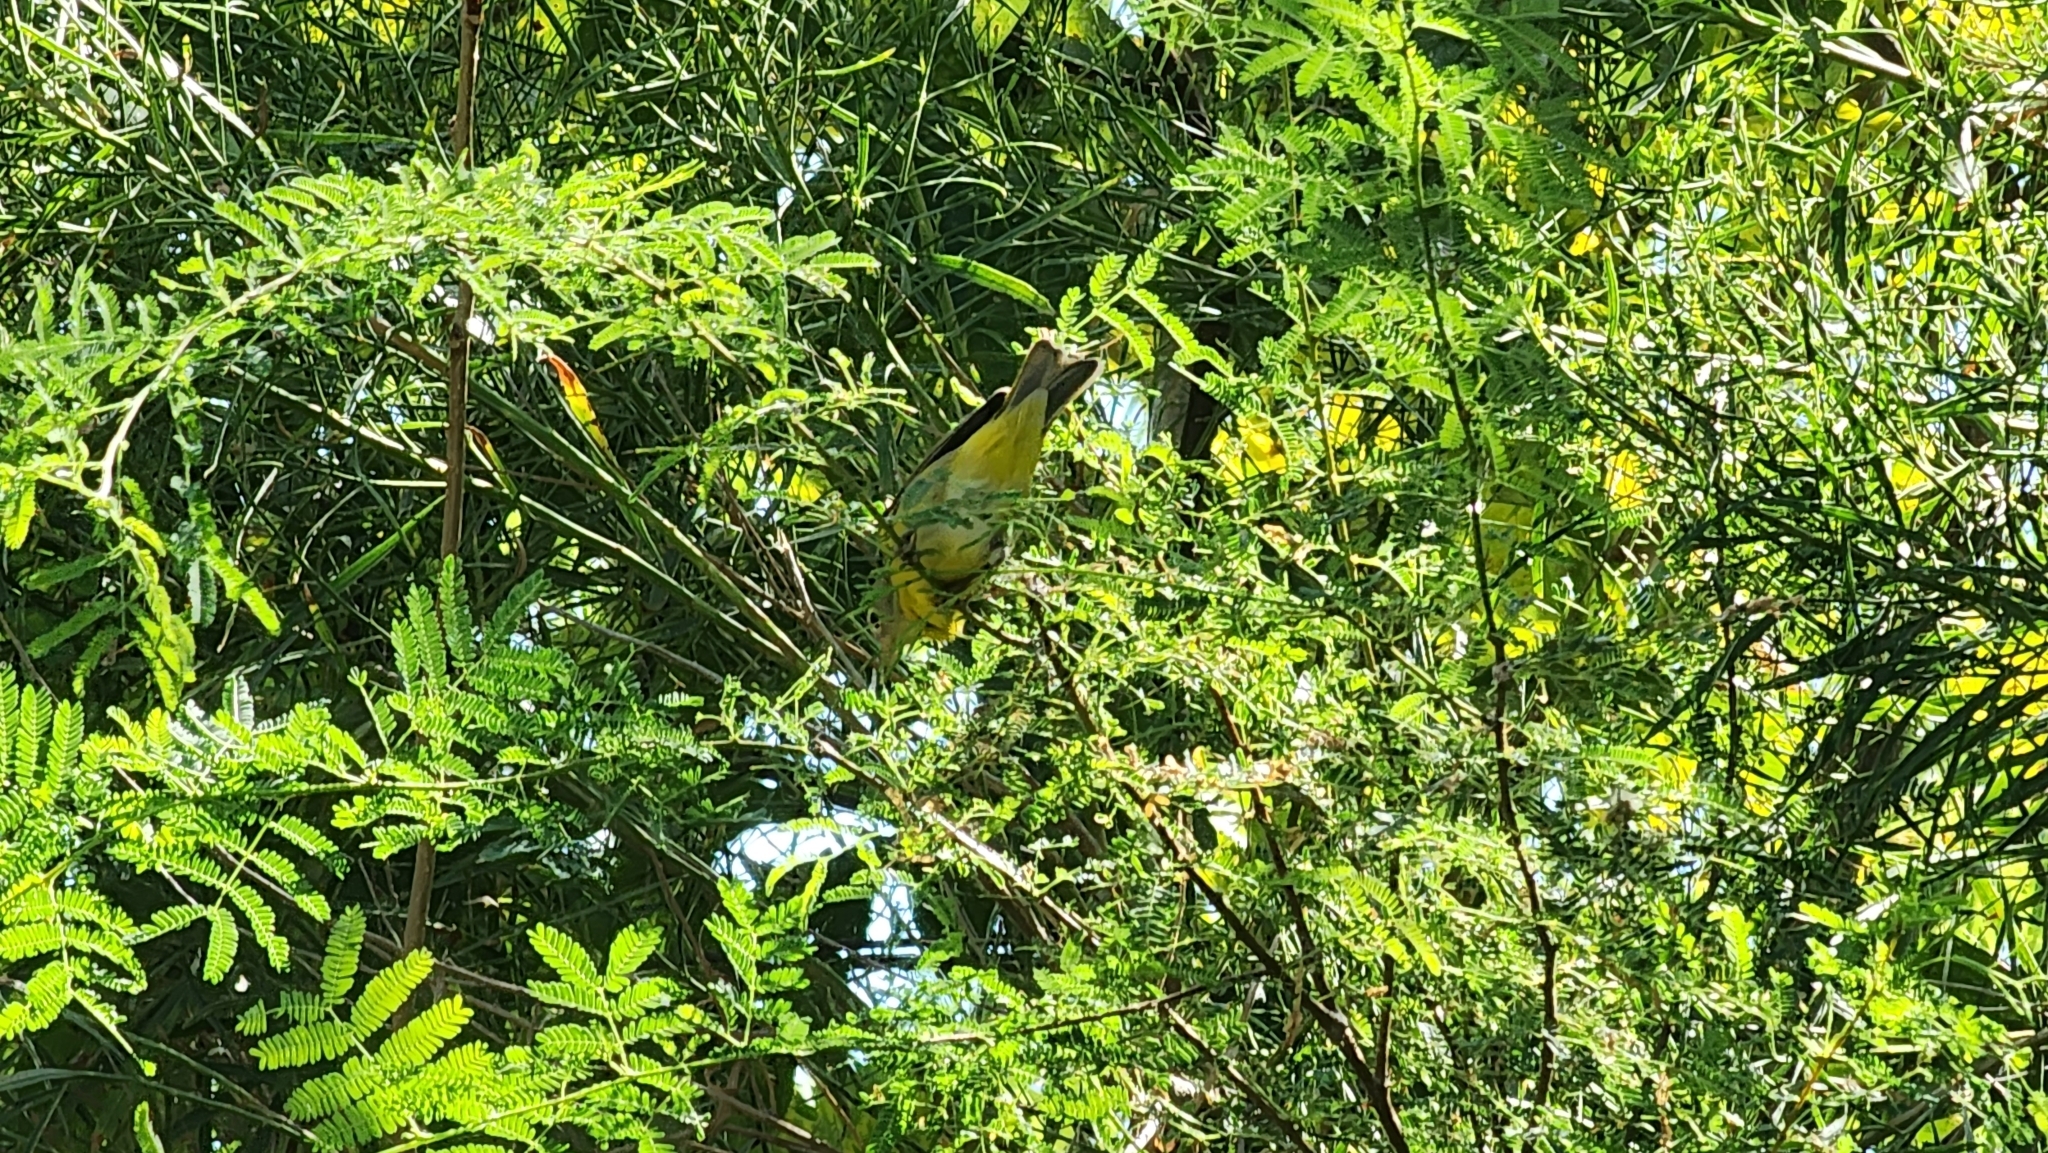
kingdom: Animalia
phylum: Chordata
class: Aves
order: Passeriformes
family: Parulidae
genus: Leiothlypis
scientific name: Leiothlypis ruficapilla
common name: Nashville warbler
